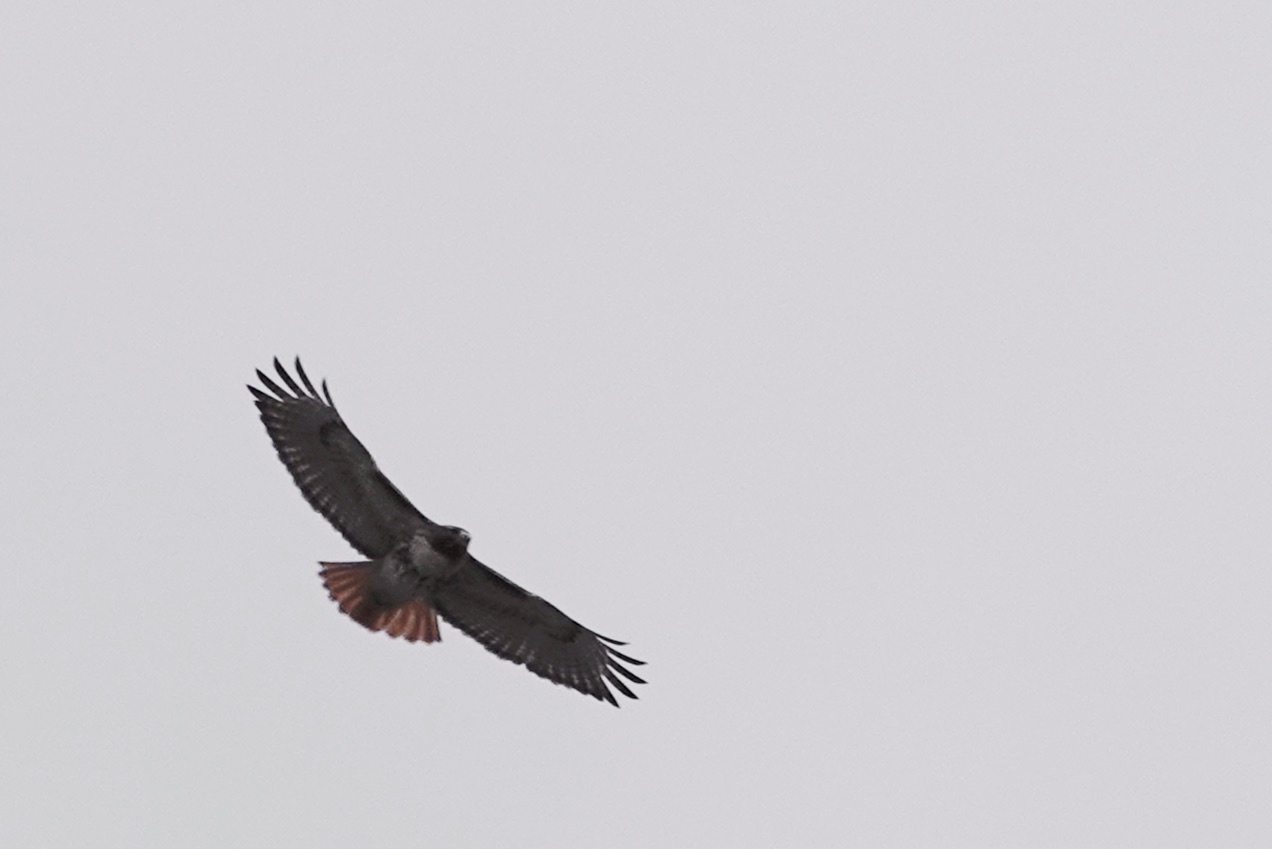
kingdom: Animalia
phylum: Chordata
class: Aves
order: Accipitriformes
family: Accipitridae
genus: Buteo
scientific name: Buteo jamaicensis
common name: Red-tailed hawk
